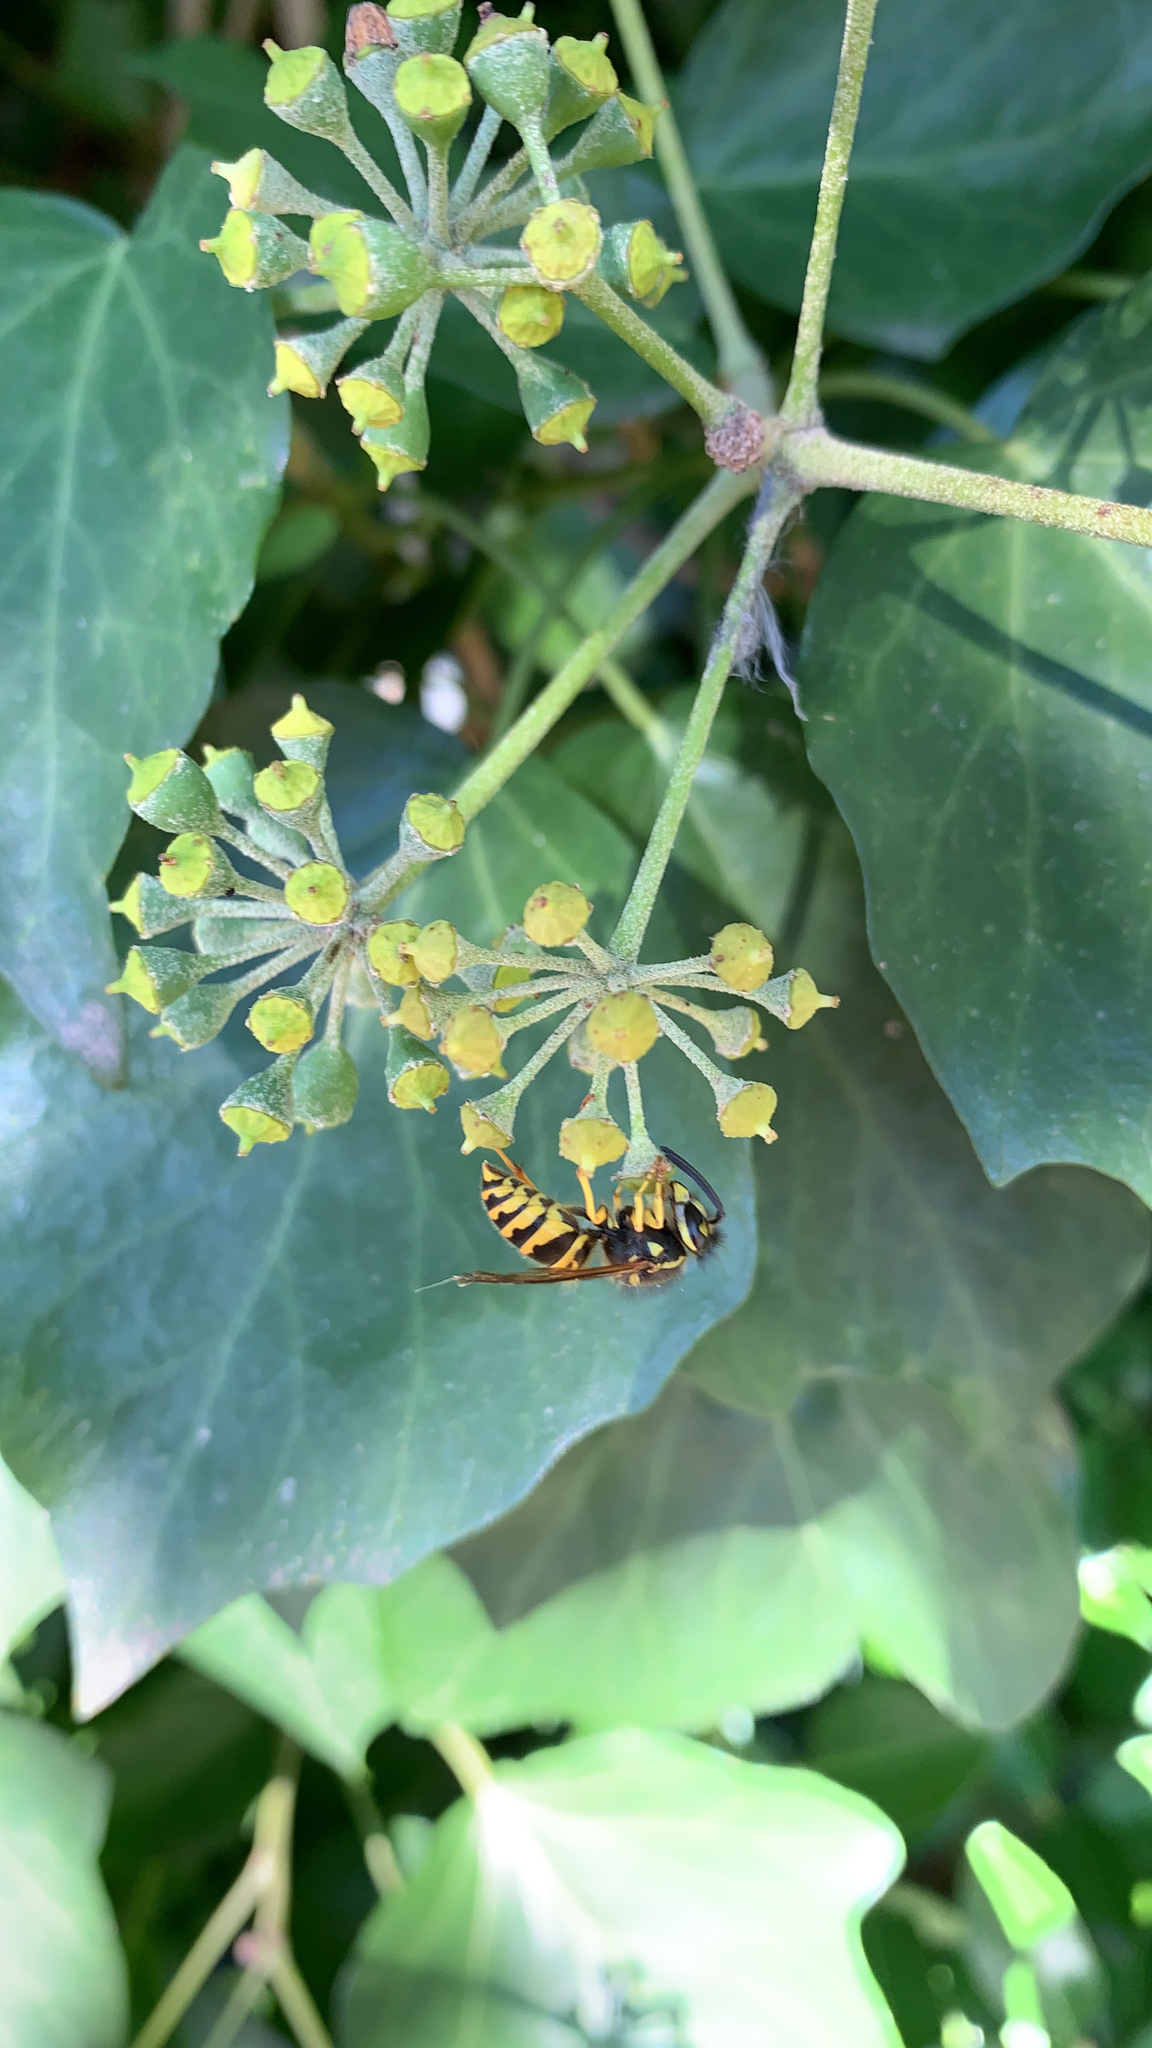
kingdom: Animalia
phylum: Arthropoda
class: Insecta
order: Hymenoptera
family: Vespidae
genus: Vespula
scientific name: Vespula maculifrons
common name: Eastern yellowjacket
